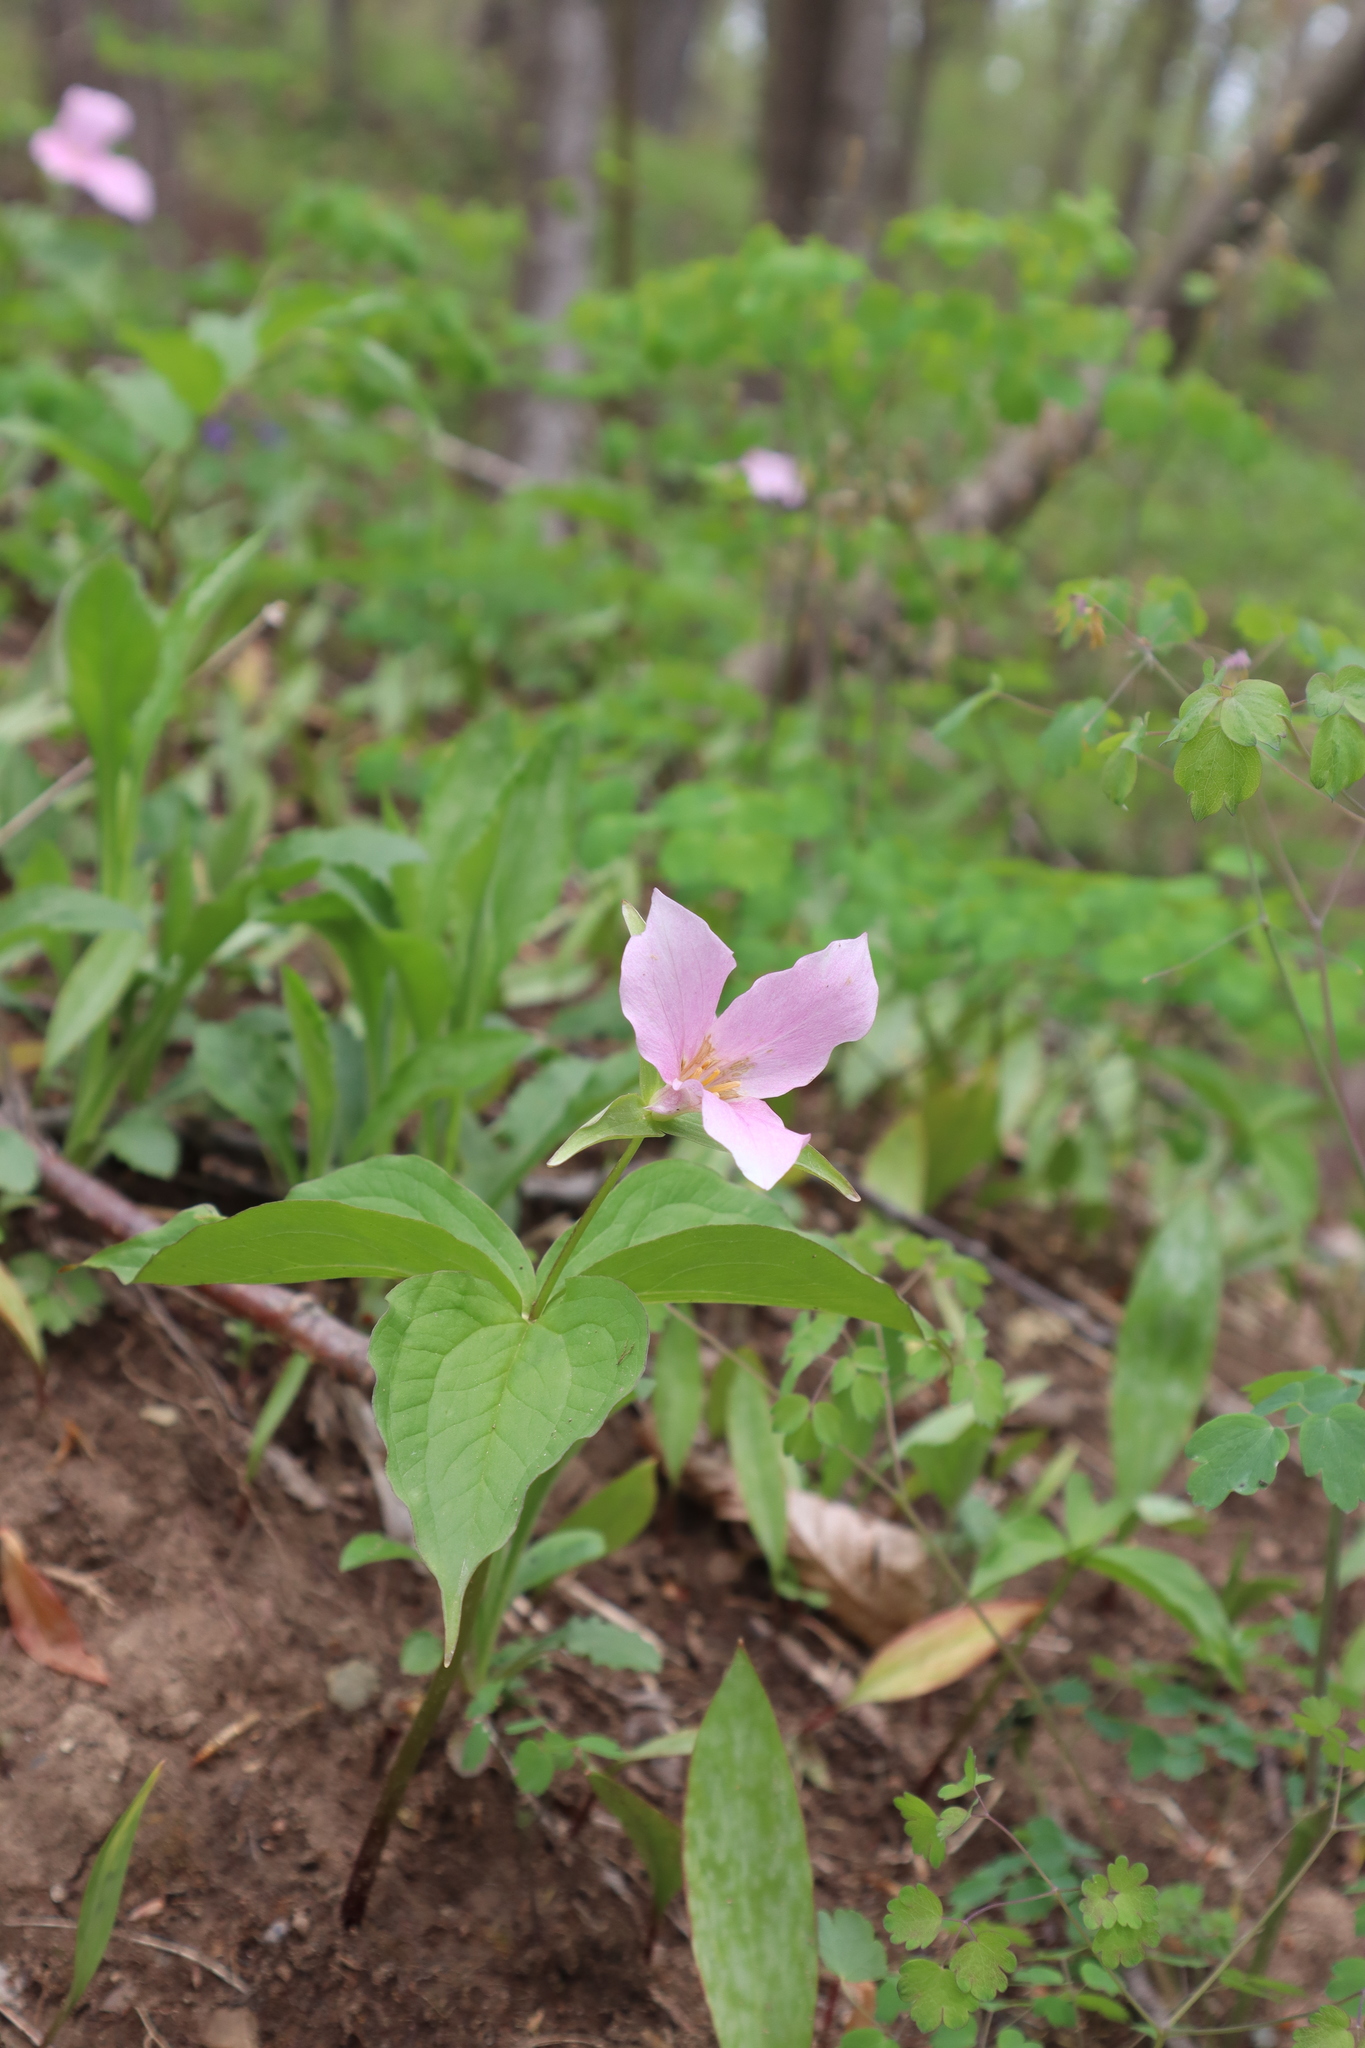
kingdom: Plantae
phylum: Tracheophyta
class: Liliopsida
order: Liliales
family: Melanthiaceae
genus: Trillium
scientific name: Trillium grandiflorum
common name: Great white trillium
